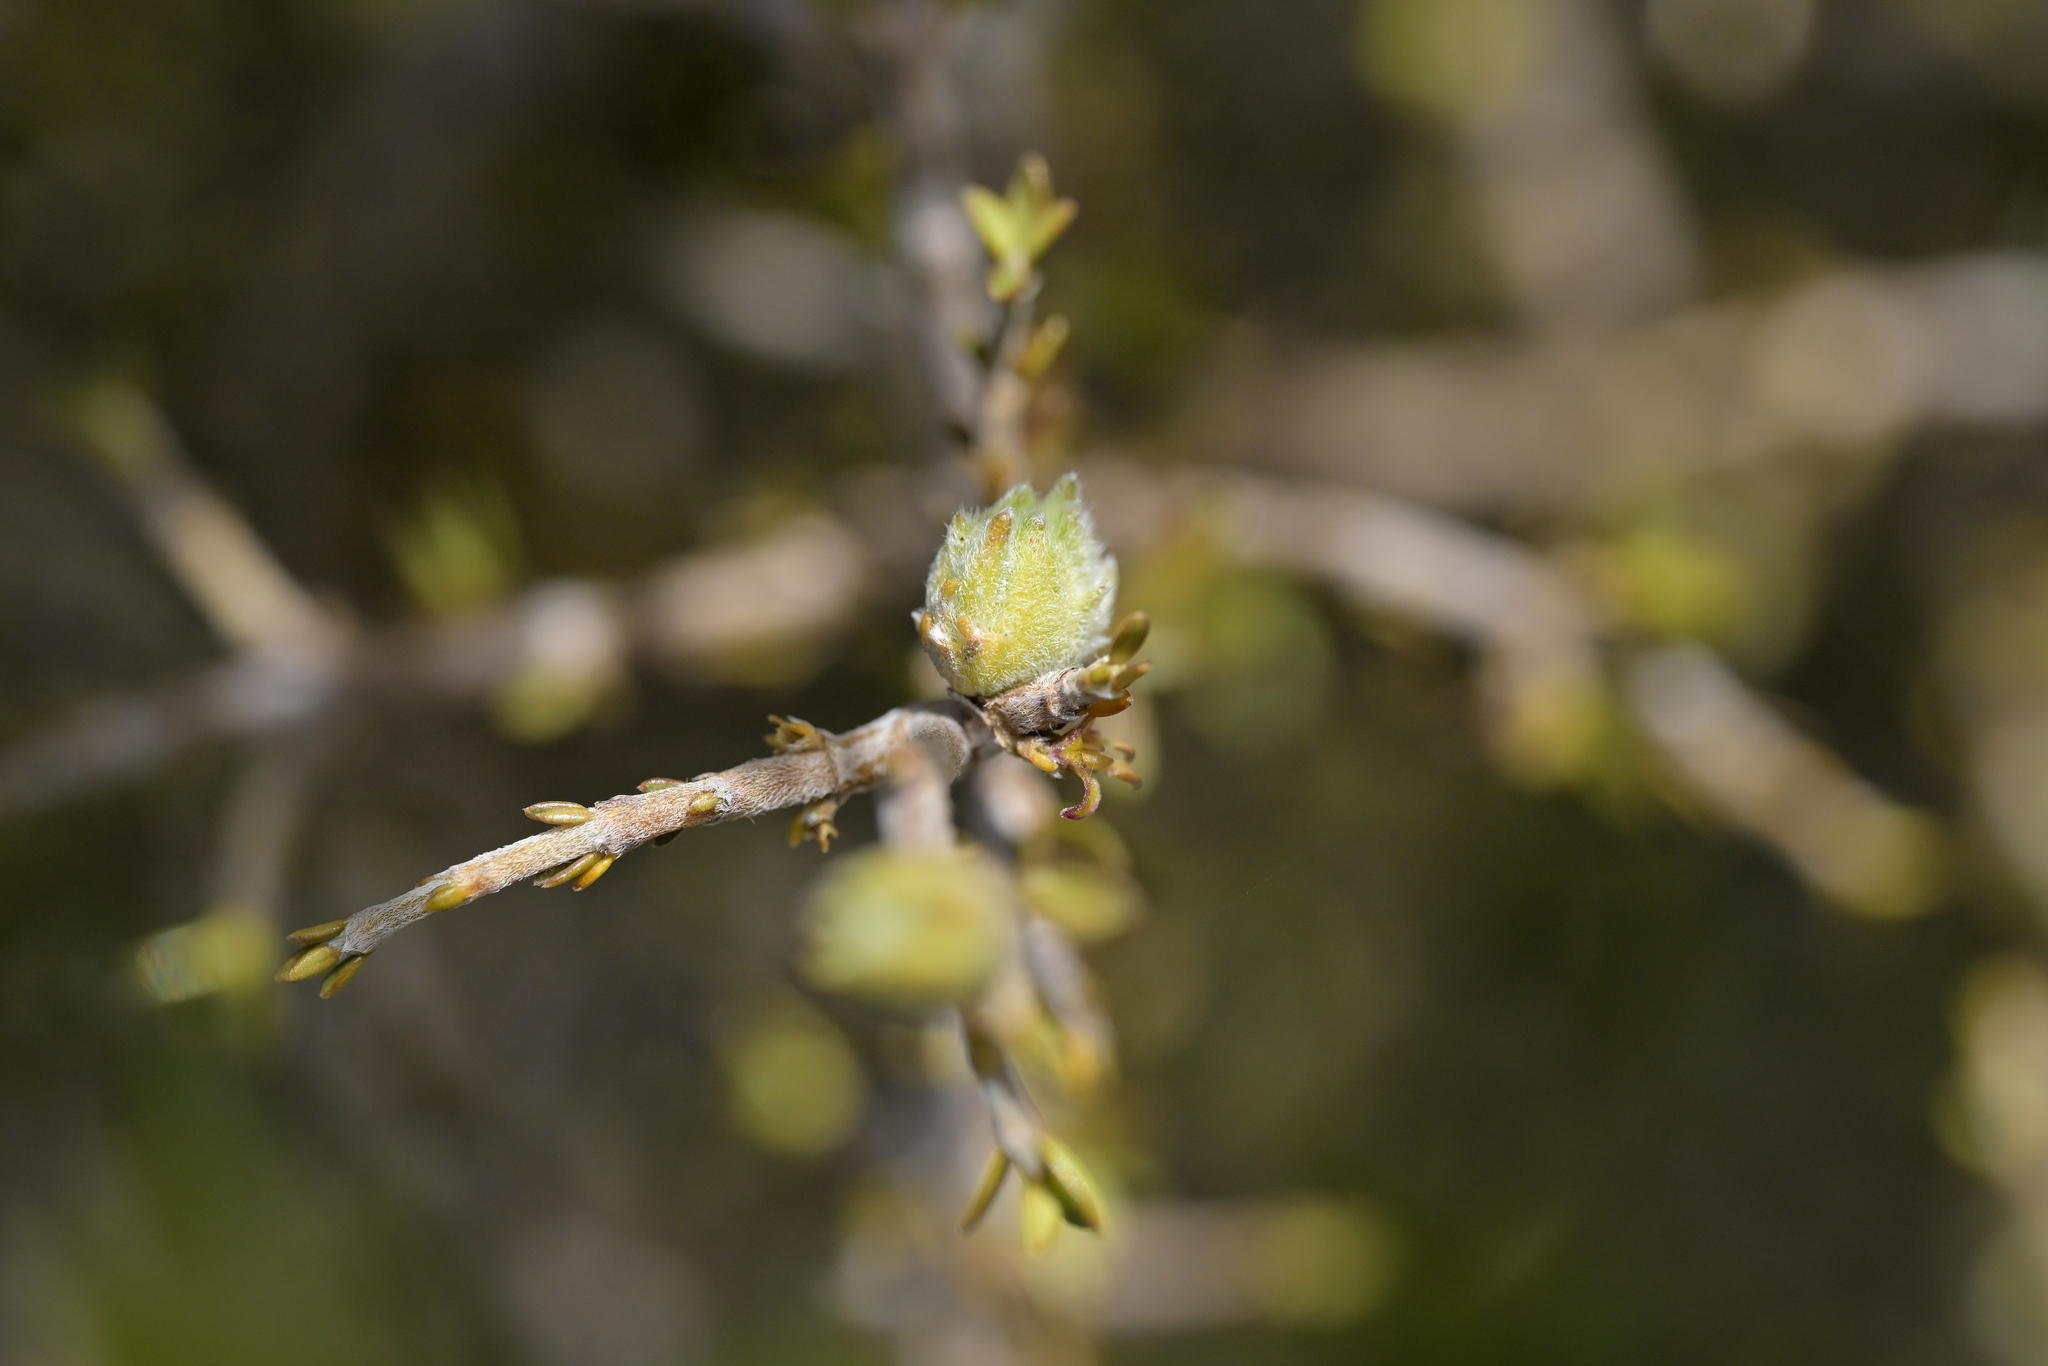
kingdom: Plantae
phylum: Tracheophyta
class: Magnoliopsida
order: Gentianales
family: Rubiaceae
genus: Coprosma
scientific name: Coprosma decurva
